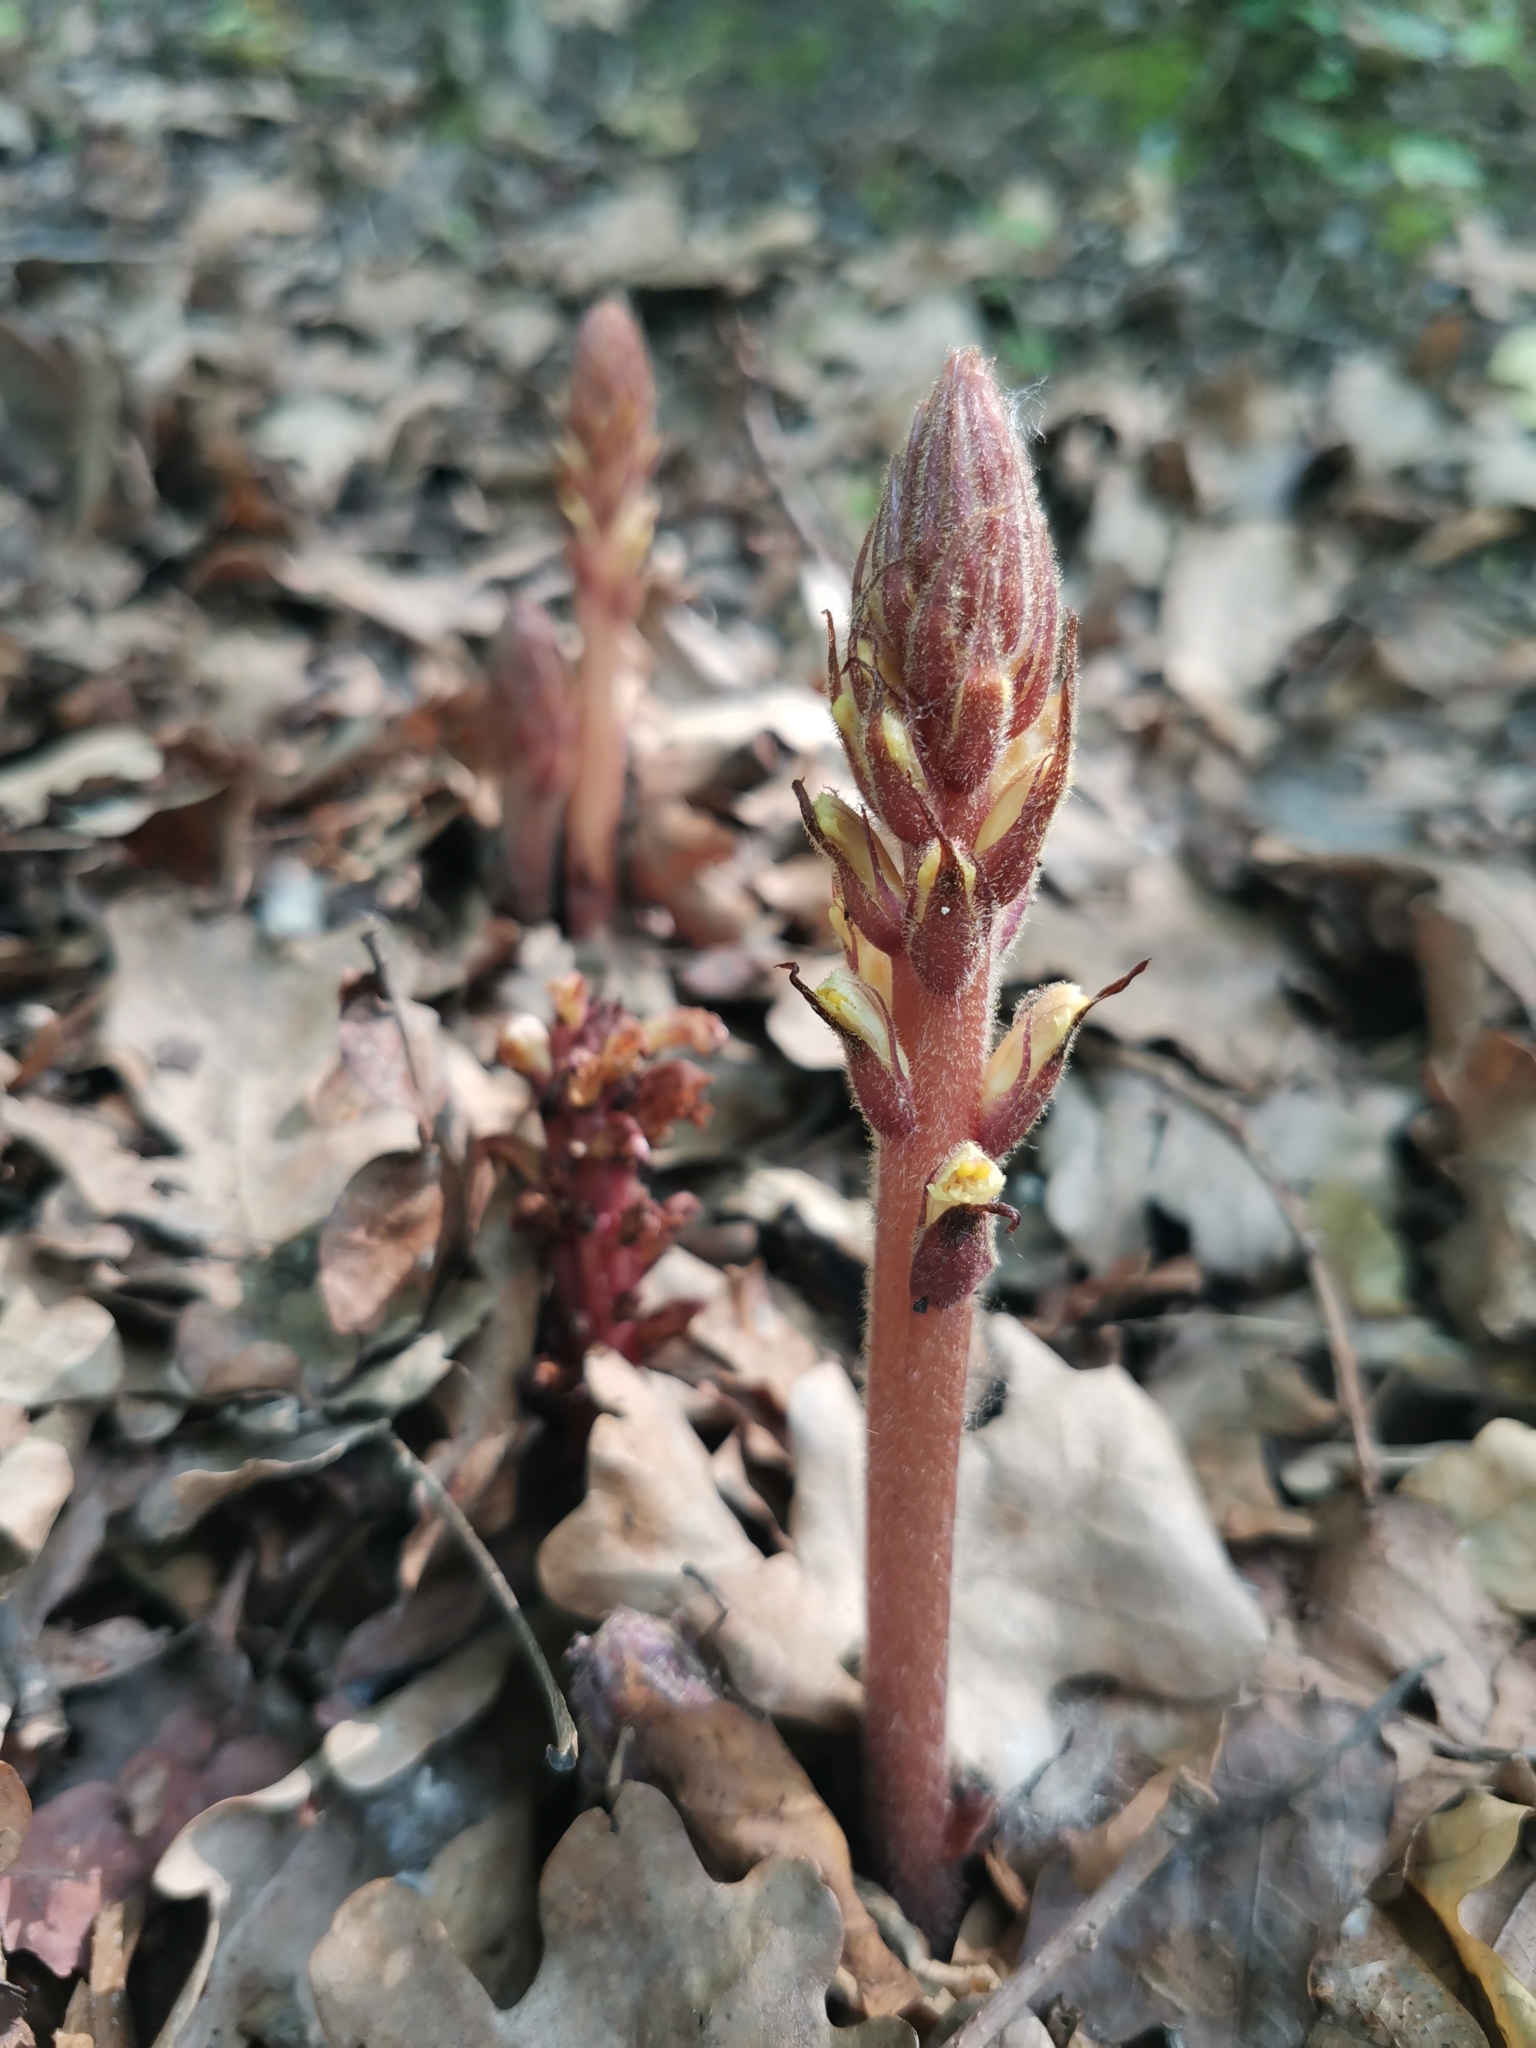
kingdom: Plantae
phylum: Tracheophyta
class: Magnoliopsida
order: Lamiales
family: Orobanchaceae
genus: Orobanche
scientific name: Orobanche hederae
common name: Ivy broomrape
